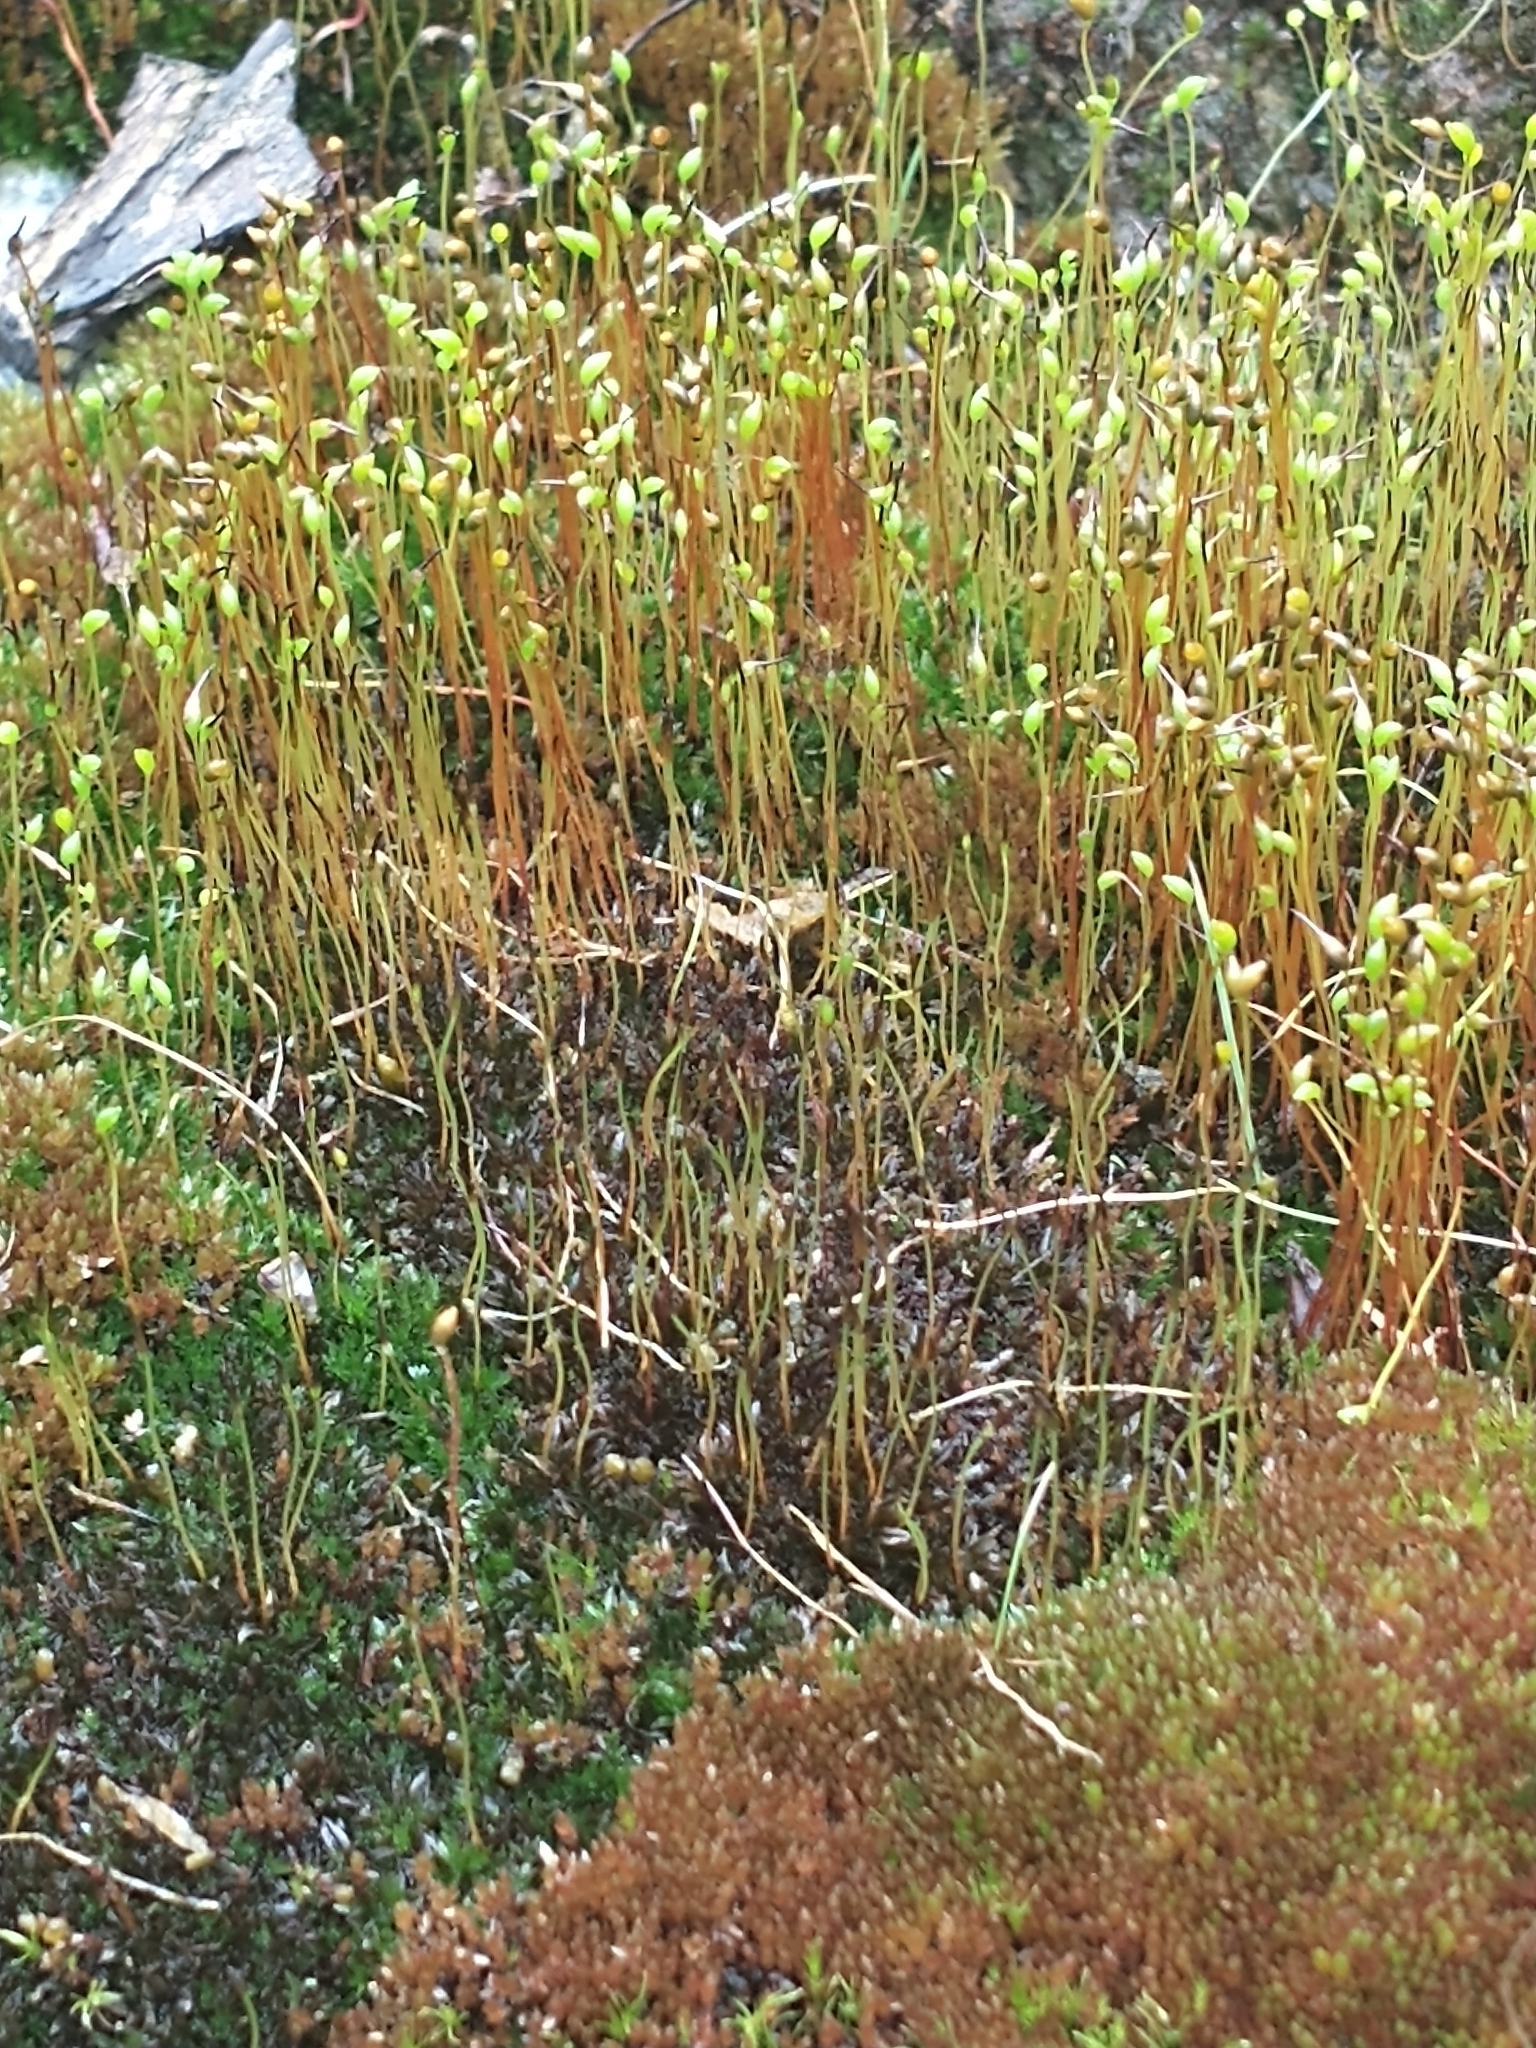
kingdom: Plantae
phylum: Bryophyta
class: Bryopsida
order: Dicranales
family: Ditrichaceae
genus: Ceratodon
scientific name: Ceratodon purpureus
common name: Redshank
